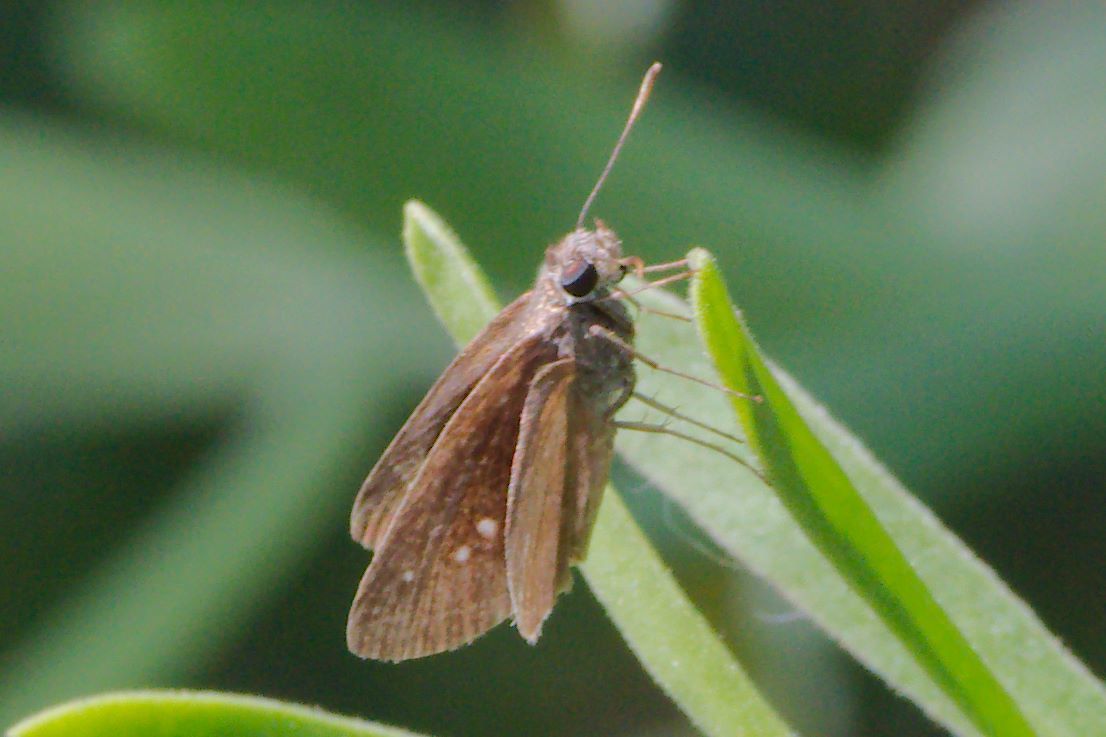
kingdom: Animalia
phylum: Arthropoda
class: Insecta
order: Lepidoptera
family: Hesperiidae
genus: Cymaenes
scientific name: Cymaenes tripunctus
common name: Dingy dotted skipper
